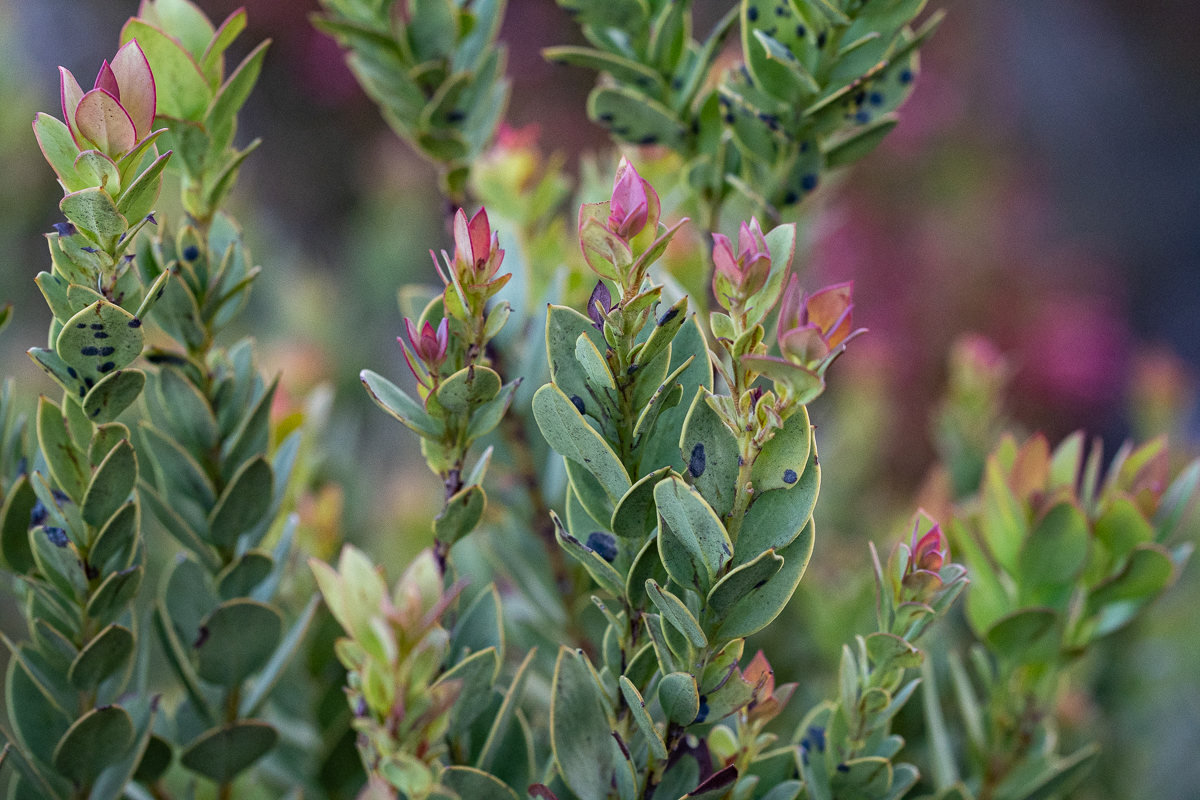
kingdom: Plantae
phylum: Tracheophyta
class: Magnoliopsida
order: Santalales
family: Santalaceae
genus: Osyris
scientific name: Osyris compressa
